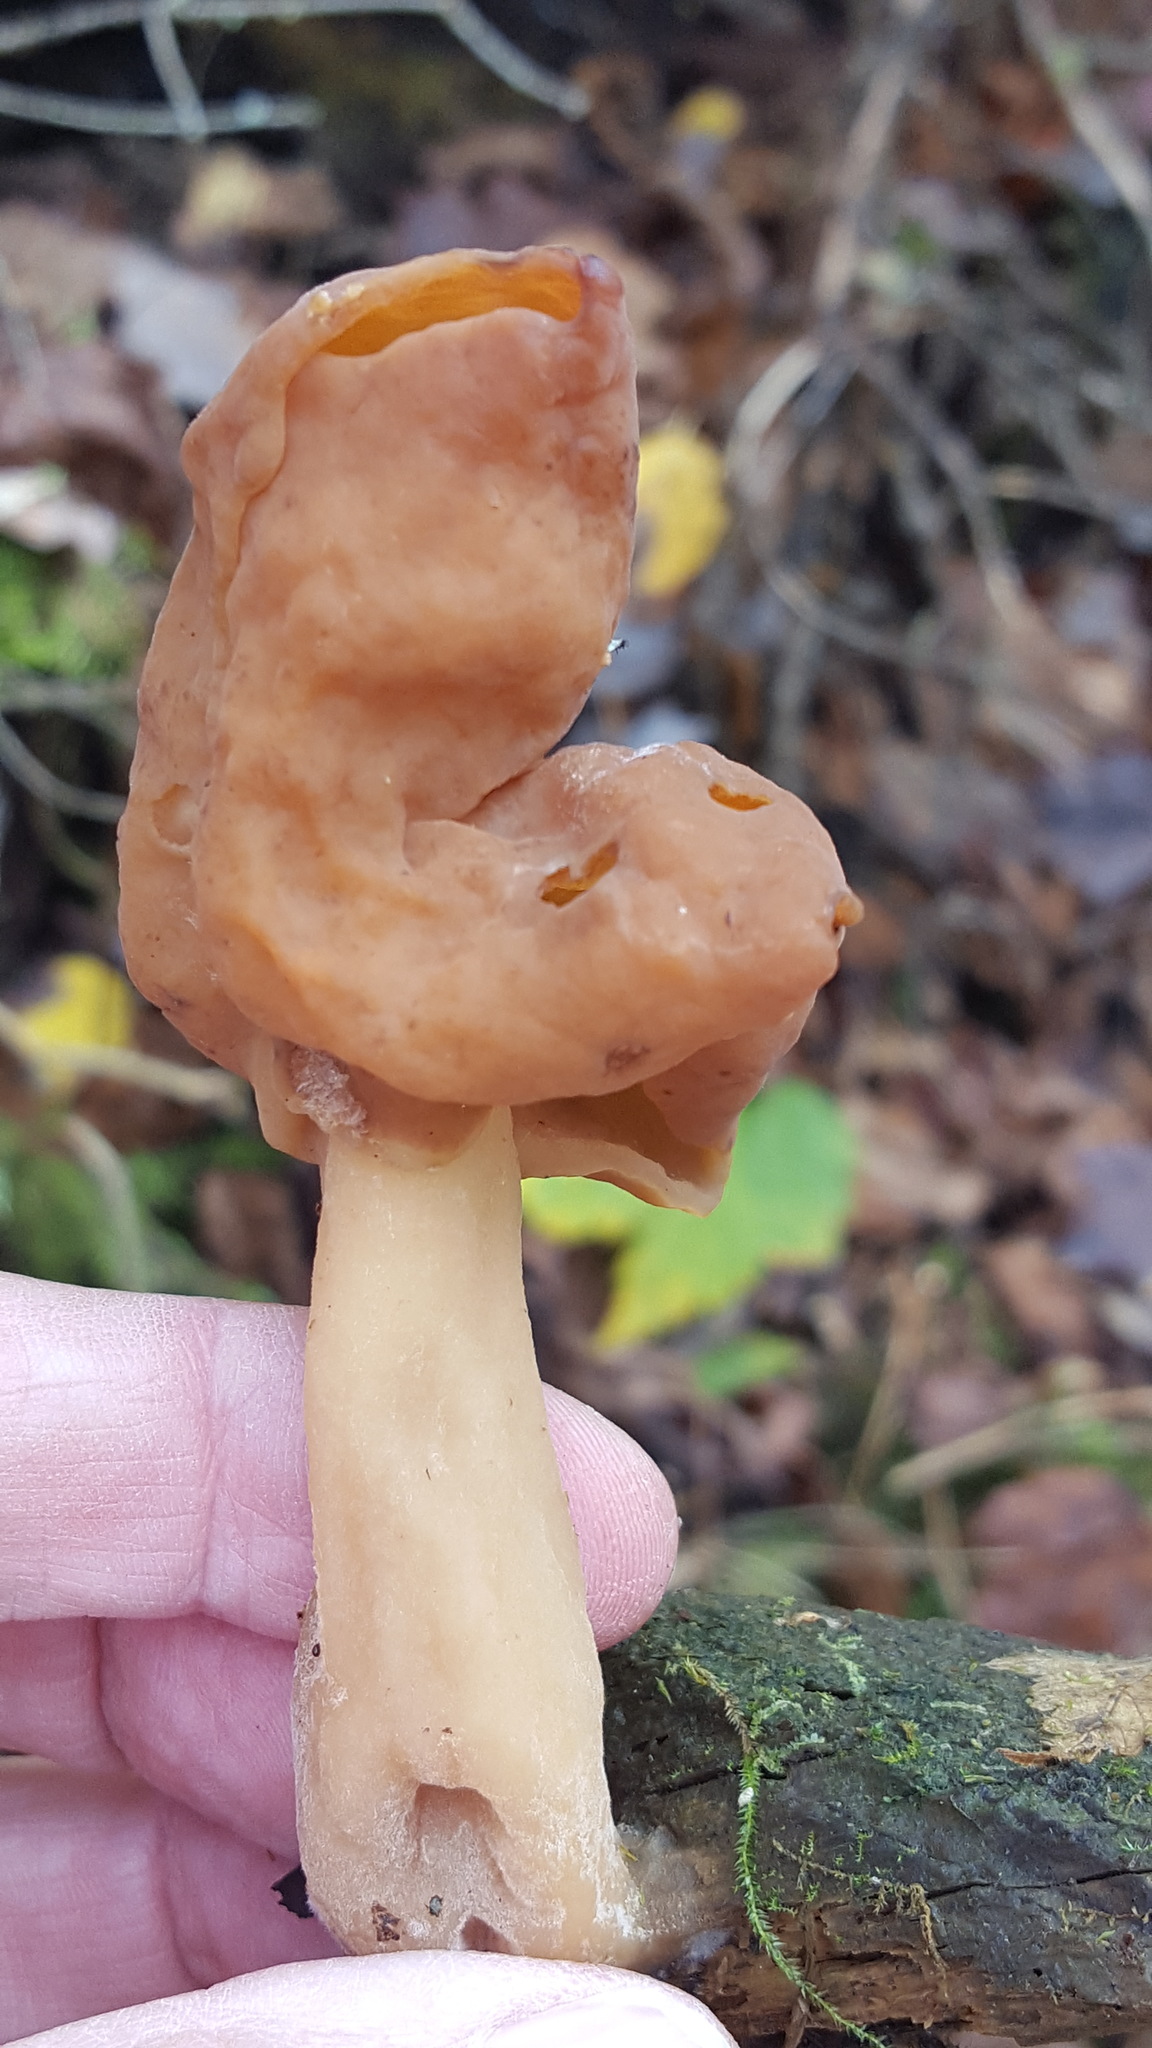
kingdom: Fungi
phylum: Ascomycota
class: Pezizomycetes
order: Pezizales
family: Discinaceae
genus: Gyromitra
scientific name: Gyromitra infula
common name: Pouched false morel
